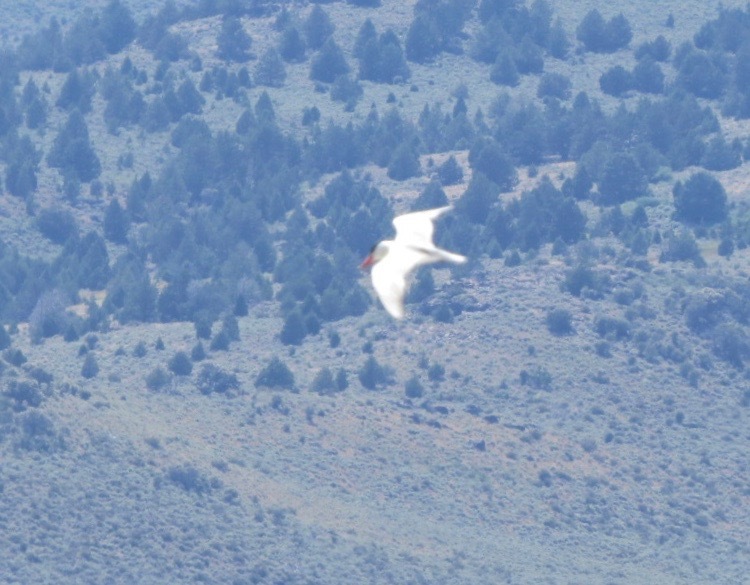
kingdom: Animalia
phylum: Chordata
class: Aves
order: Charadriiformes
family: Laridae
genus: Hydroprogne
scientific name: Hydroprogne caspia
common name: Caspian tern
